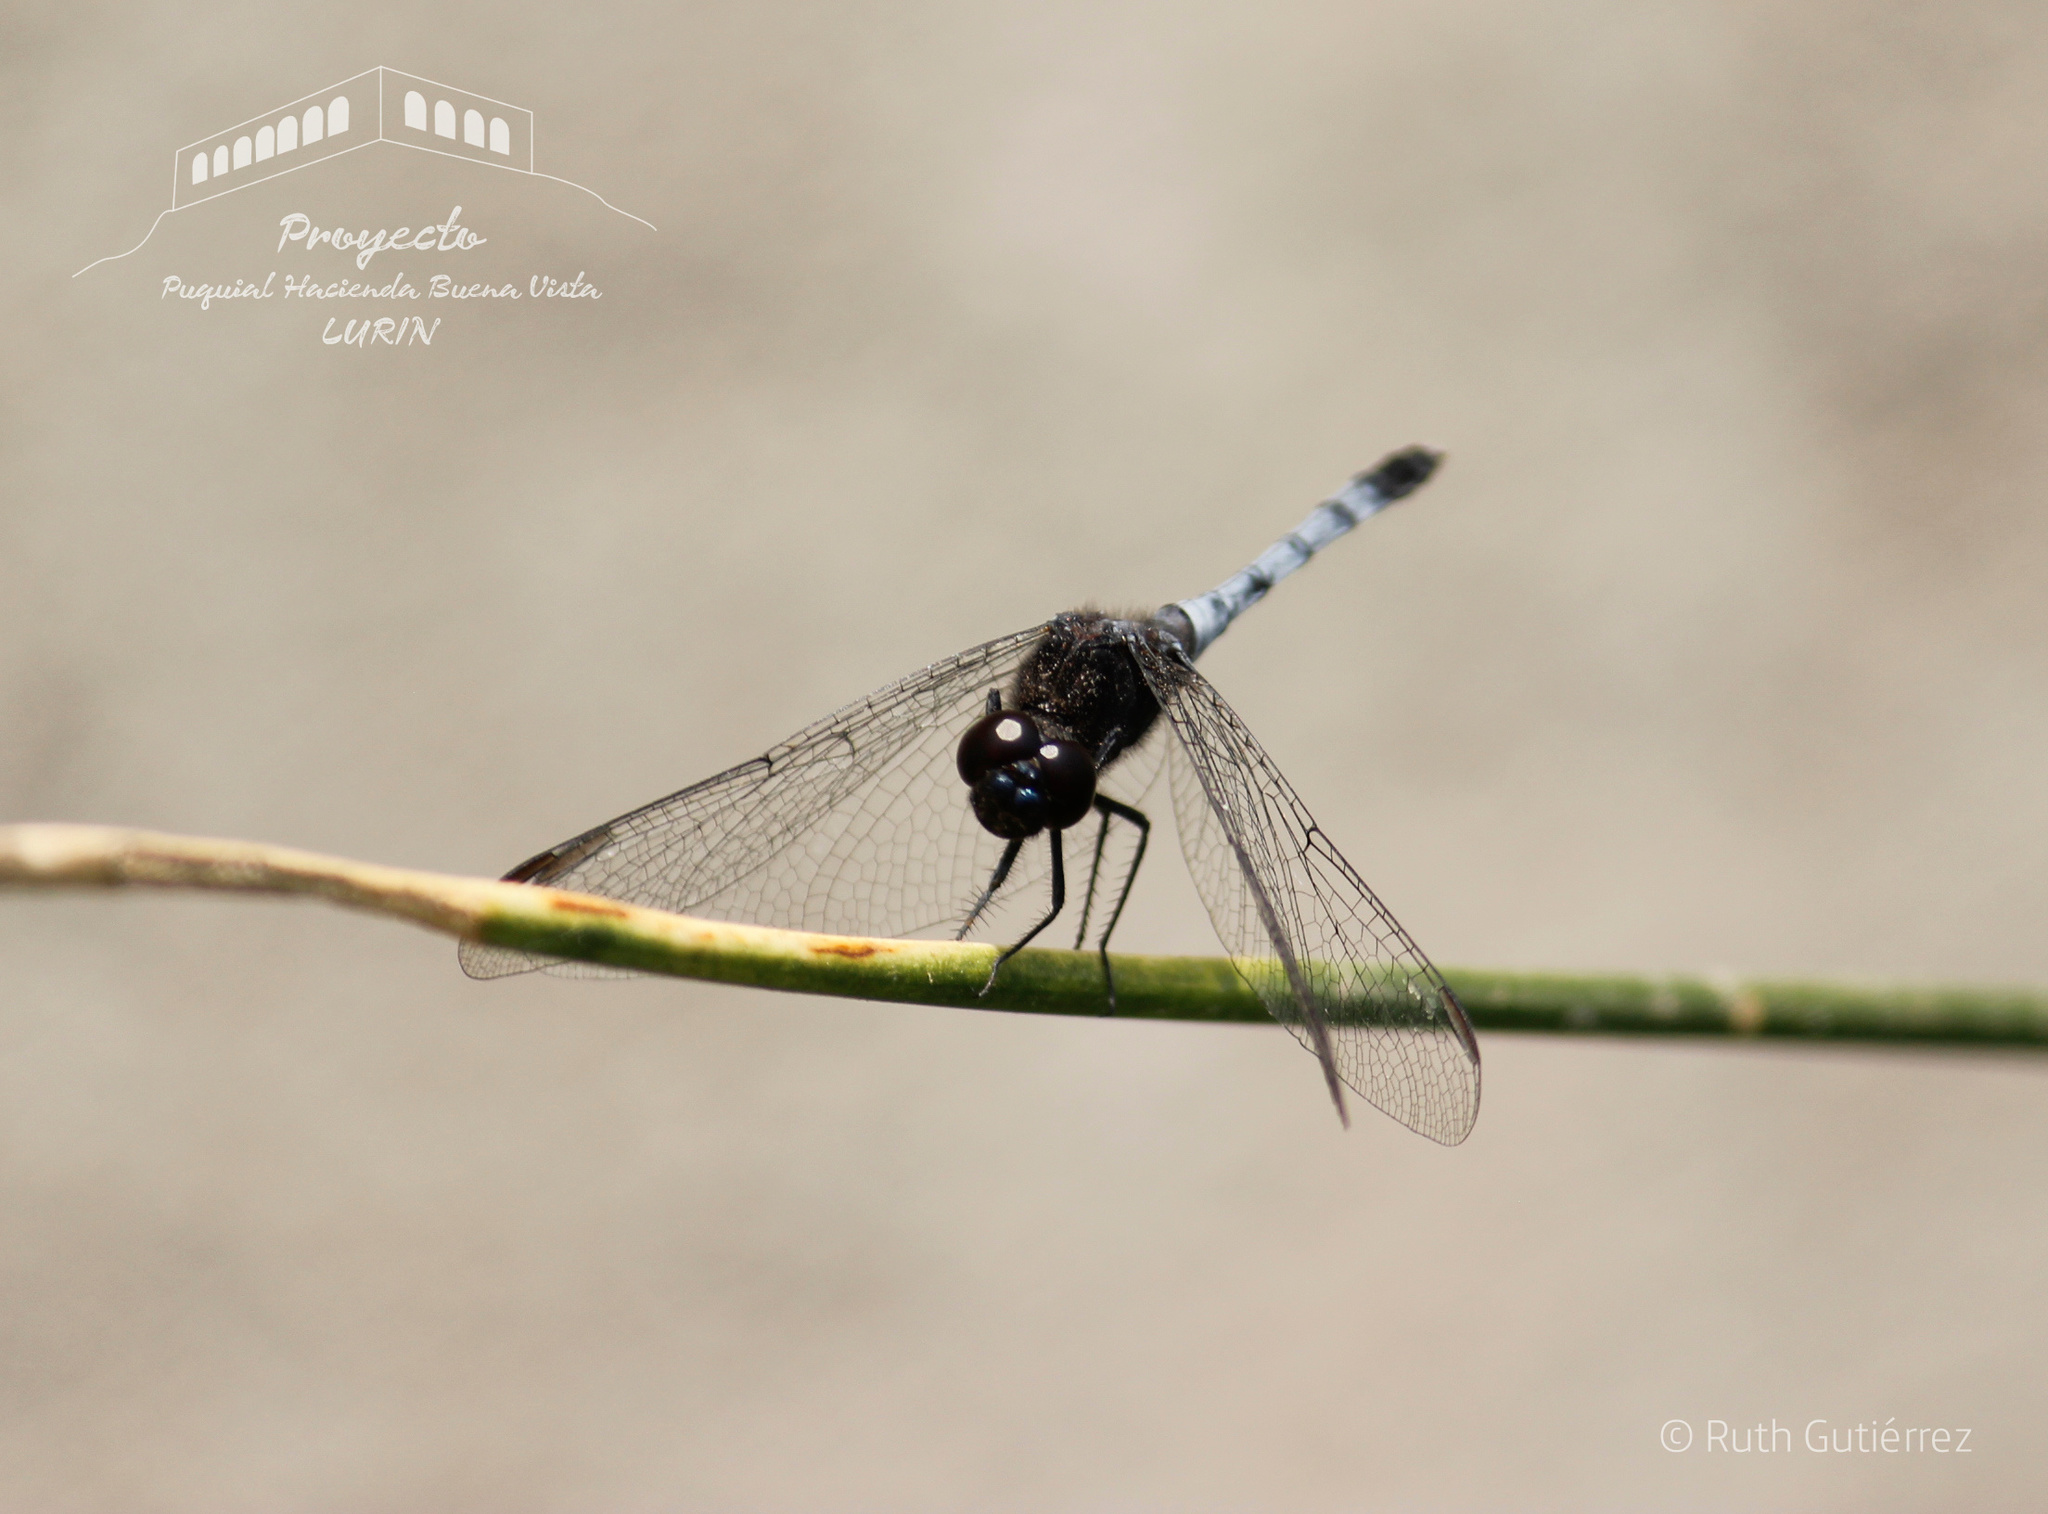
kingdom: Animalia
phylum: Arthropoda
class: Insecta
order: Odonata
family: Libellulidae
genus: Erythrodiplax
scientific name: Erythrodiplax cleopatra
